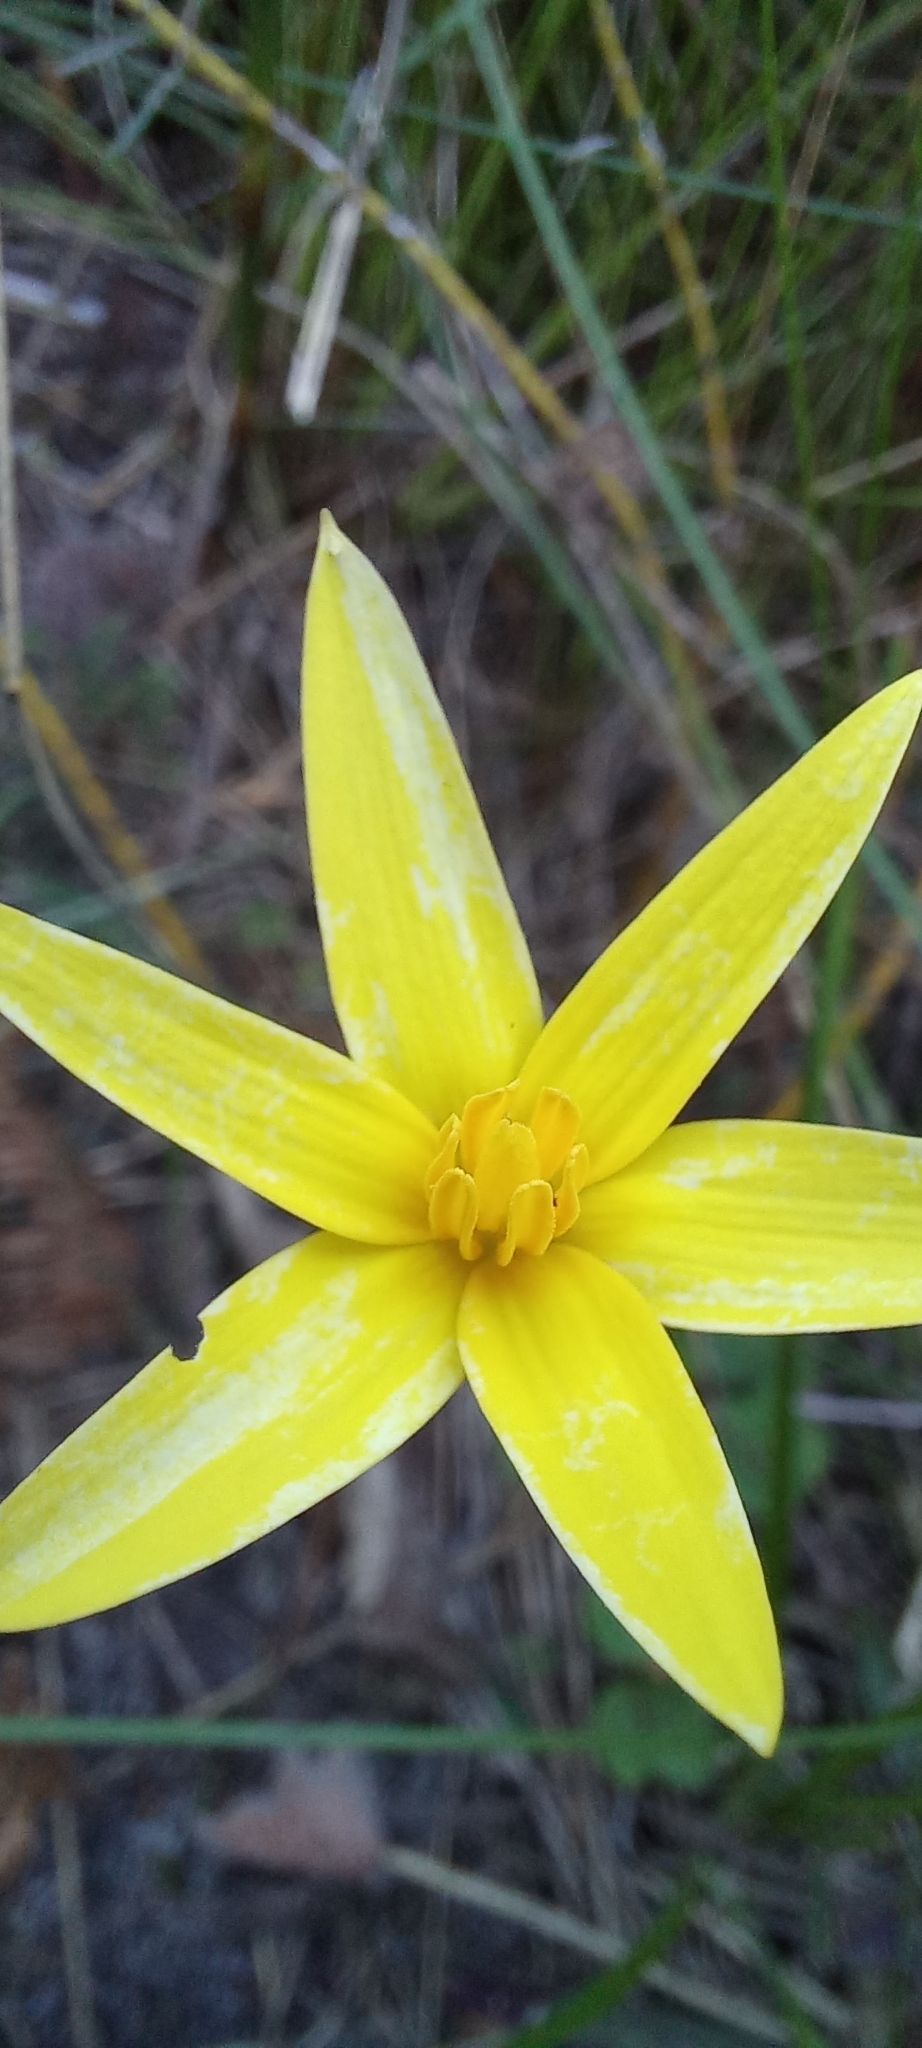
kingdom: Plantae
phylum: Tracheophyta
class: Liliopsida
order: Asparagales
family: Hypoxidaceae
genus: Pauridia
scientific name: Pauridia capensis
